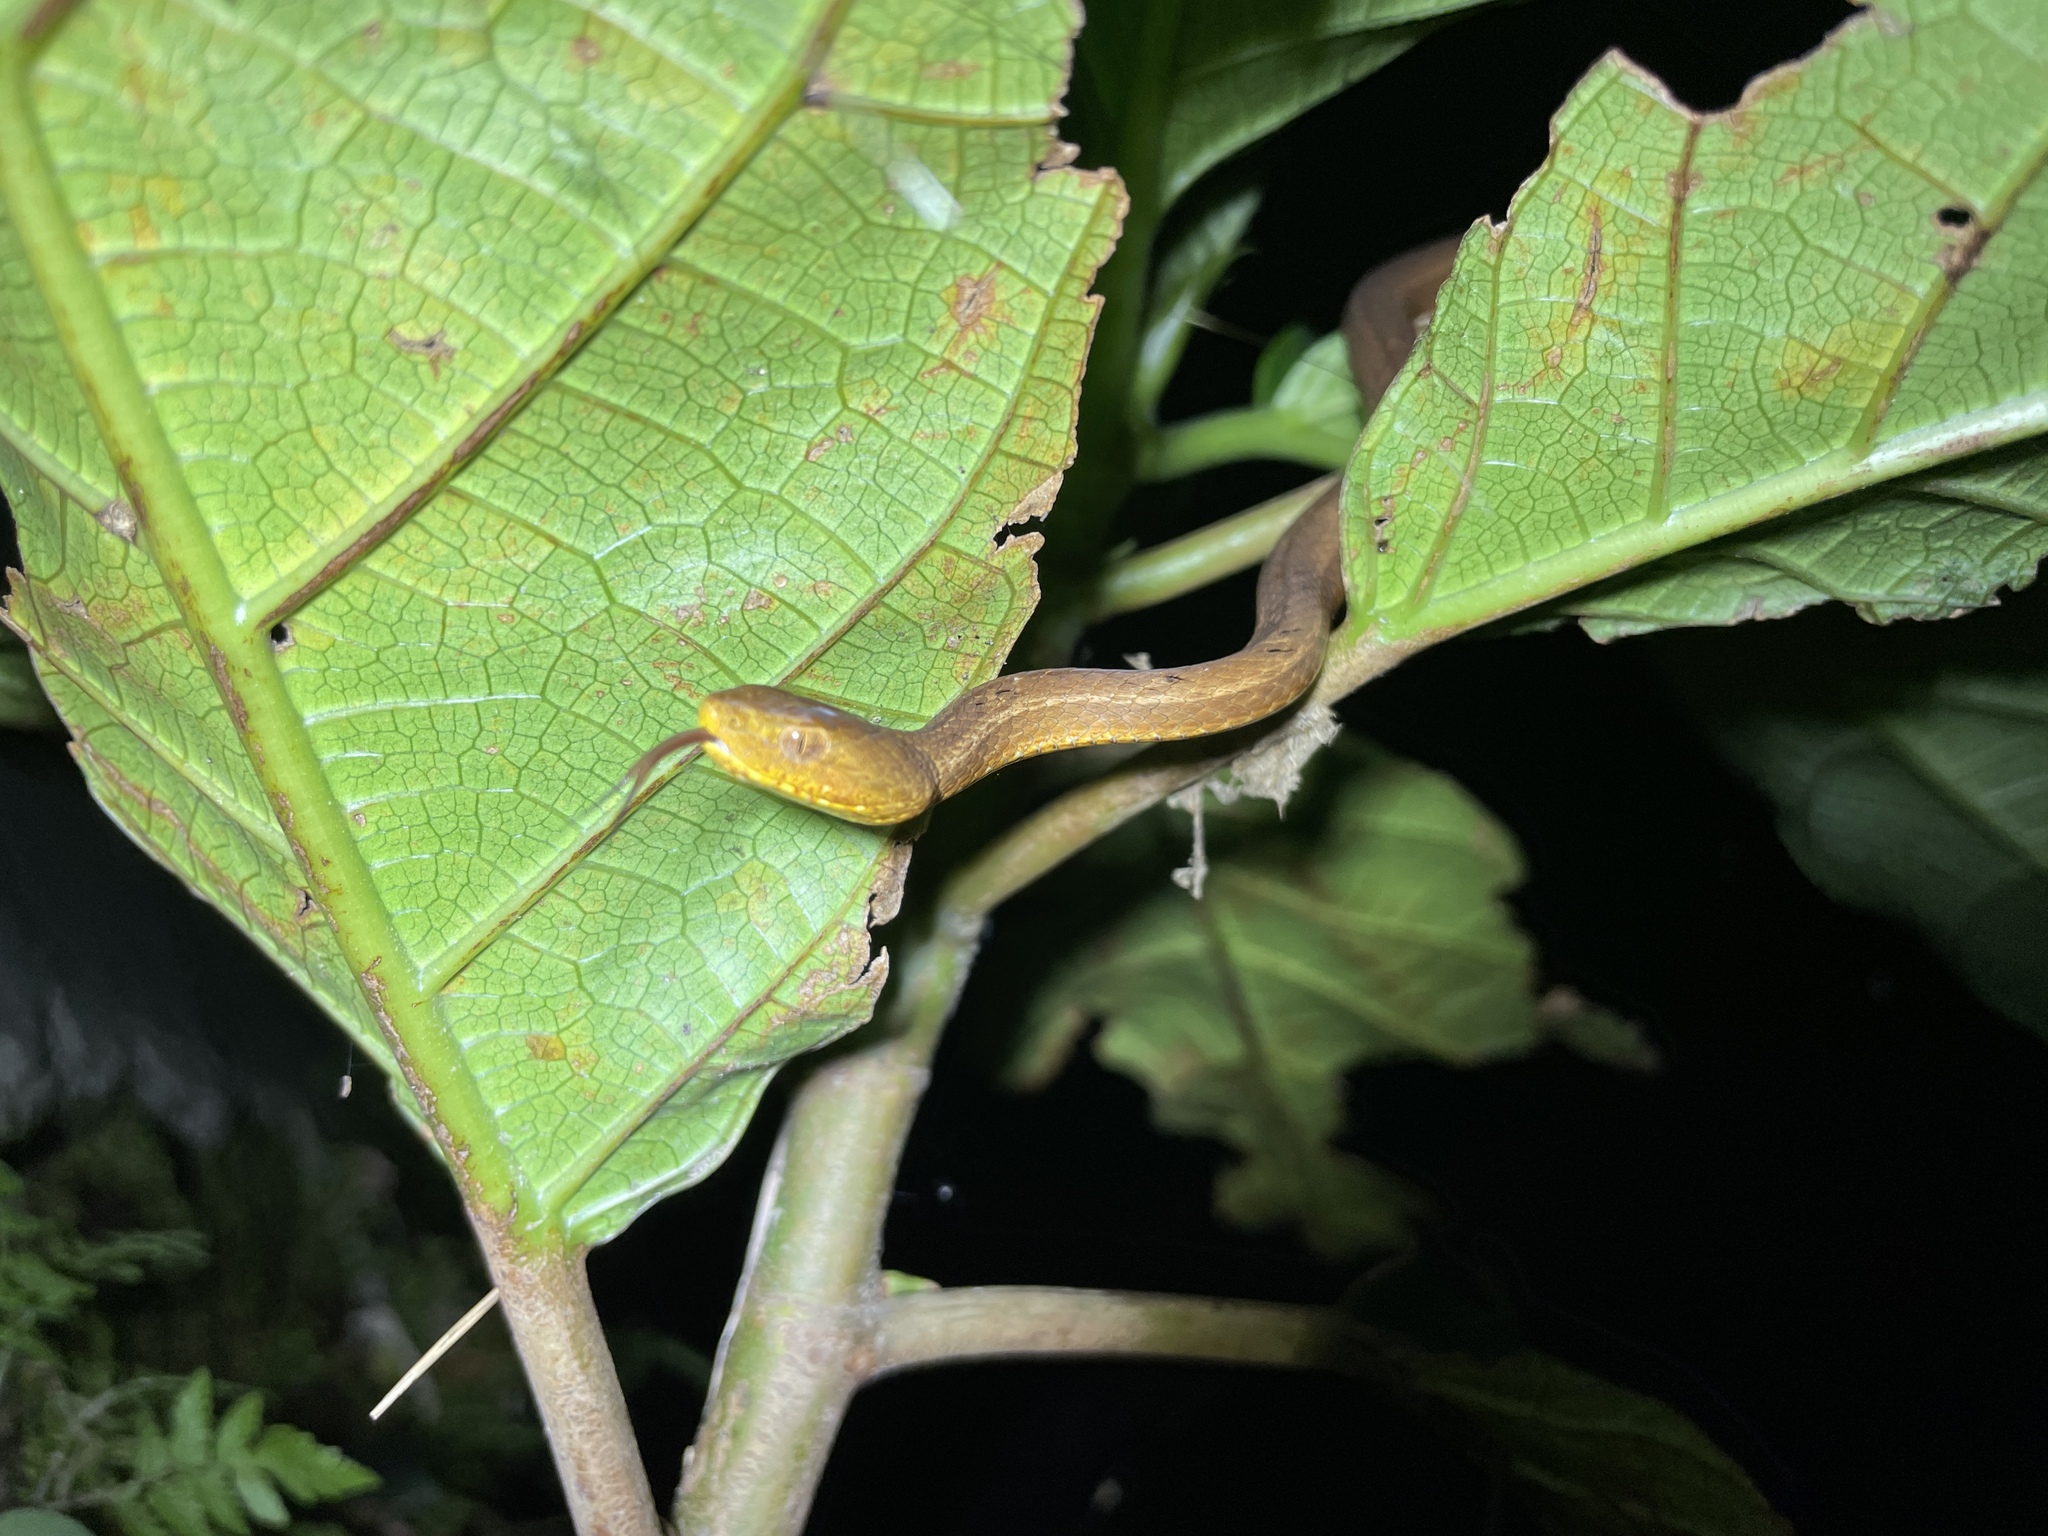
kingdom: Animalia
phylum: Chordata
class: Squamata
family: Pseudaspididae
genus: Psammodynastes
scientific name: Psammodynastes pulverulentus
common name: Common mock viper
